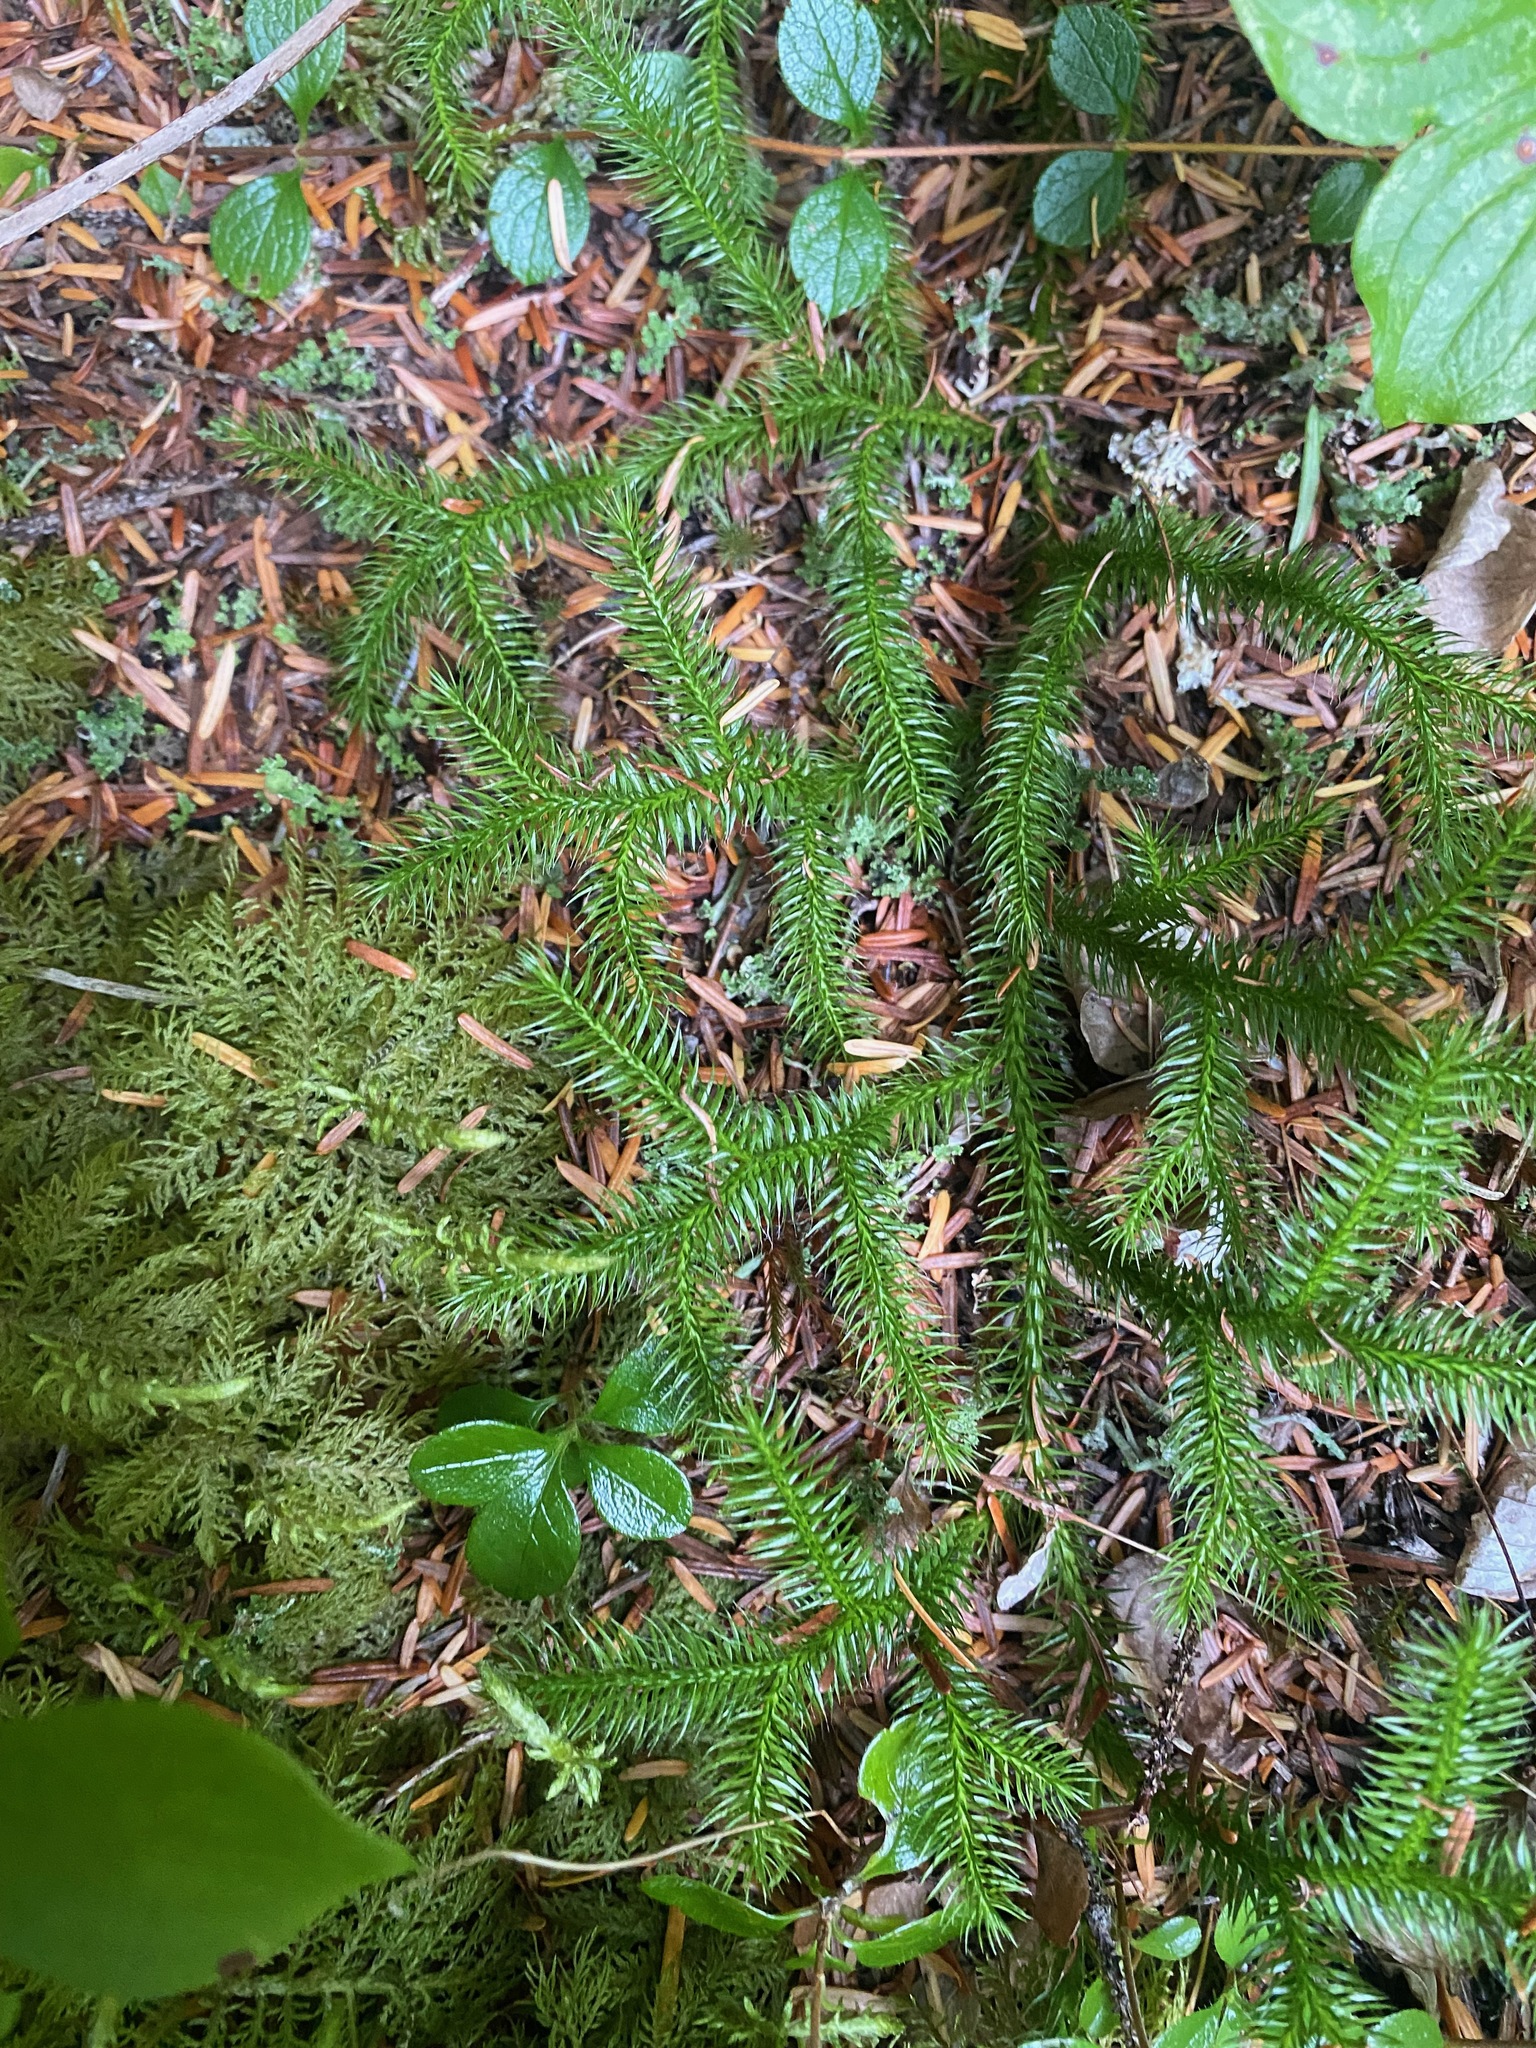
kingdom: Plantae
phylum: Tracheophyta
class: Lycopodiopsida
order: Lycopodiales
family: Lycopodiaceae
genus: Lycopodium
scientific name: Lycopodium clavatum
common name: Stag's-horn clubmoss
